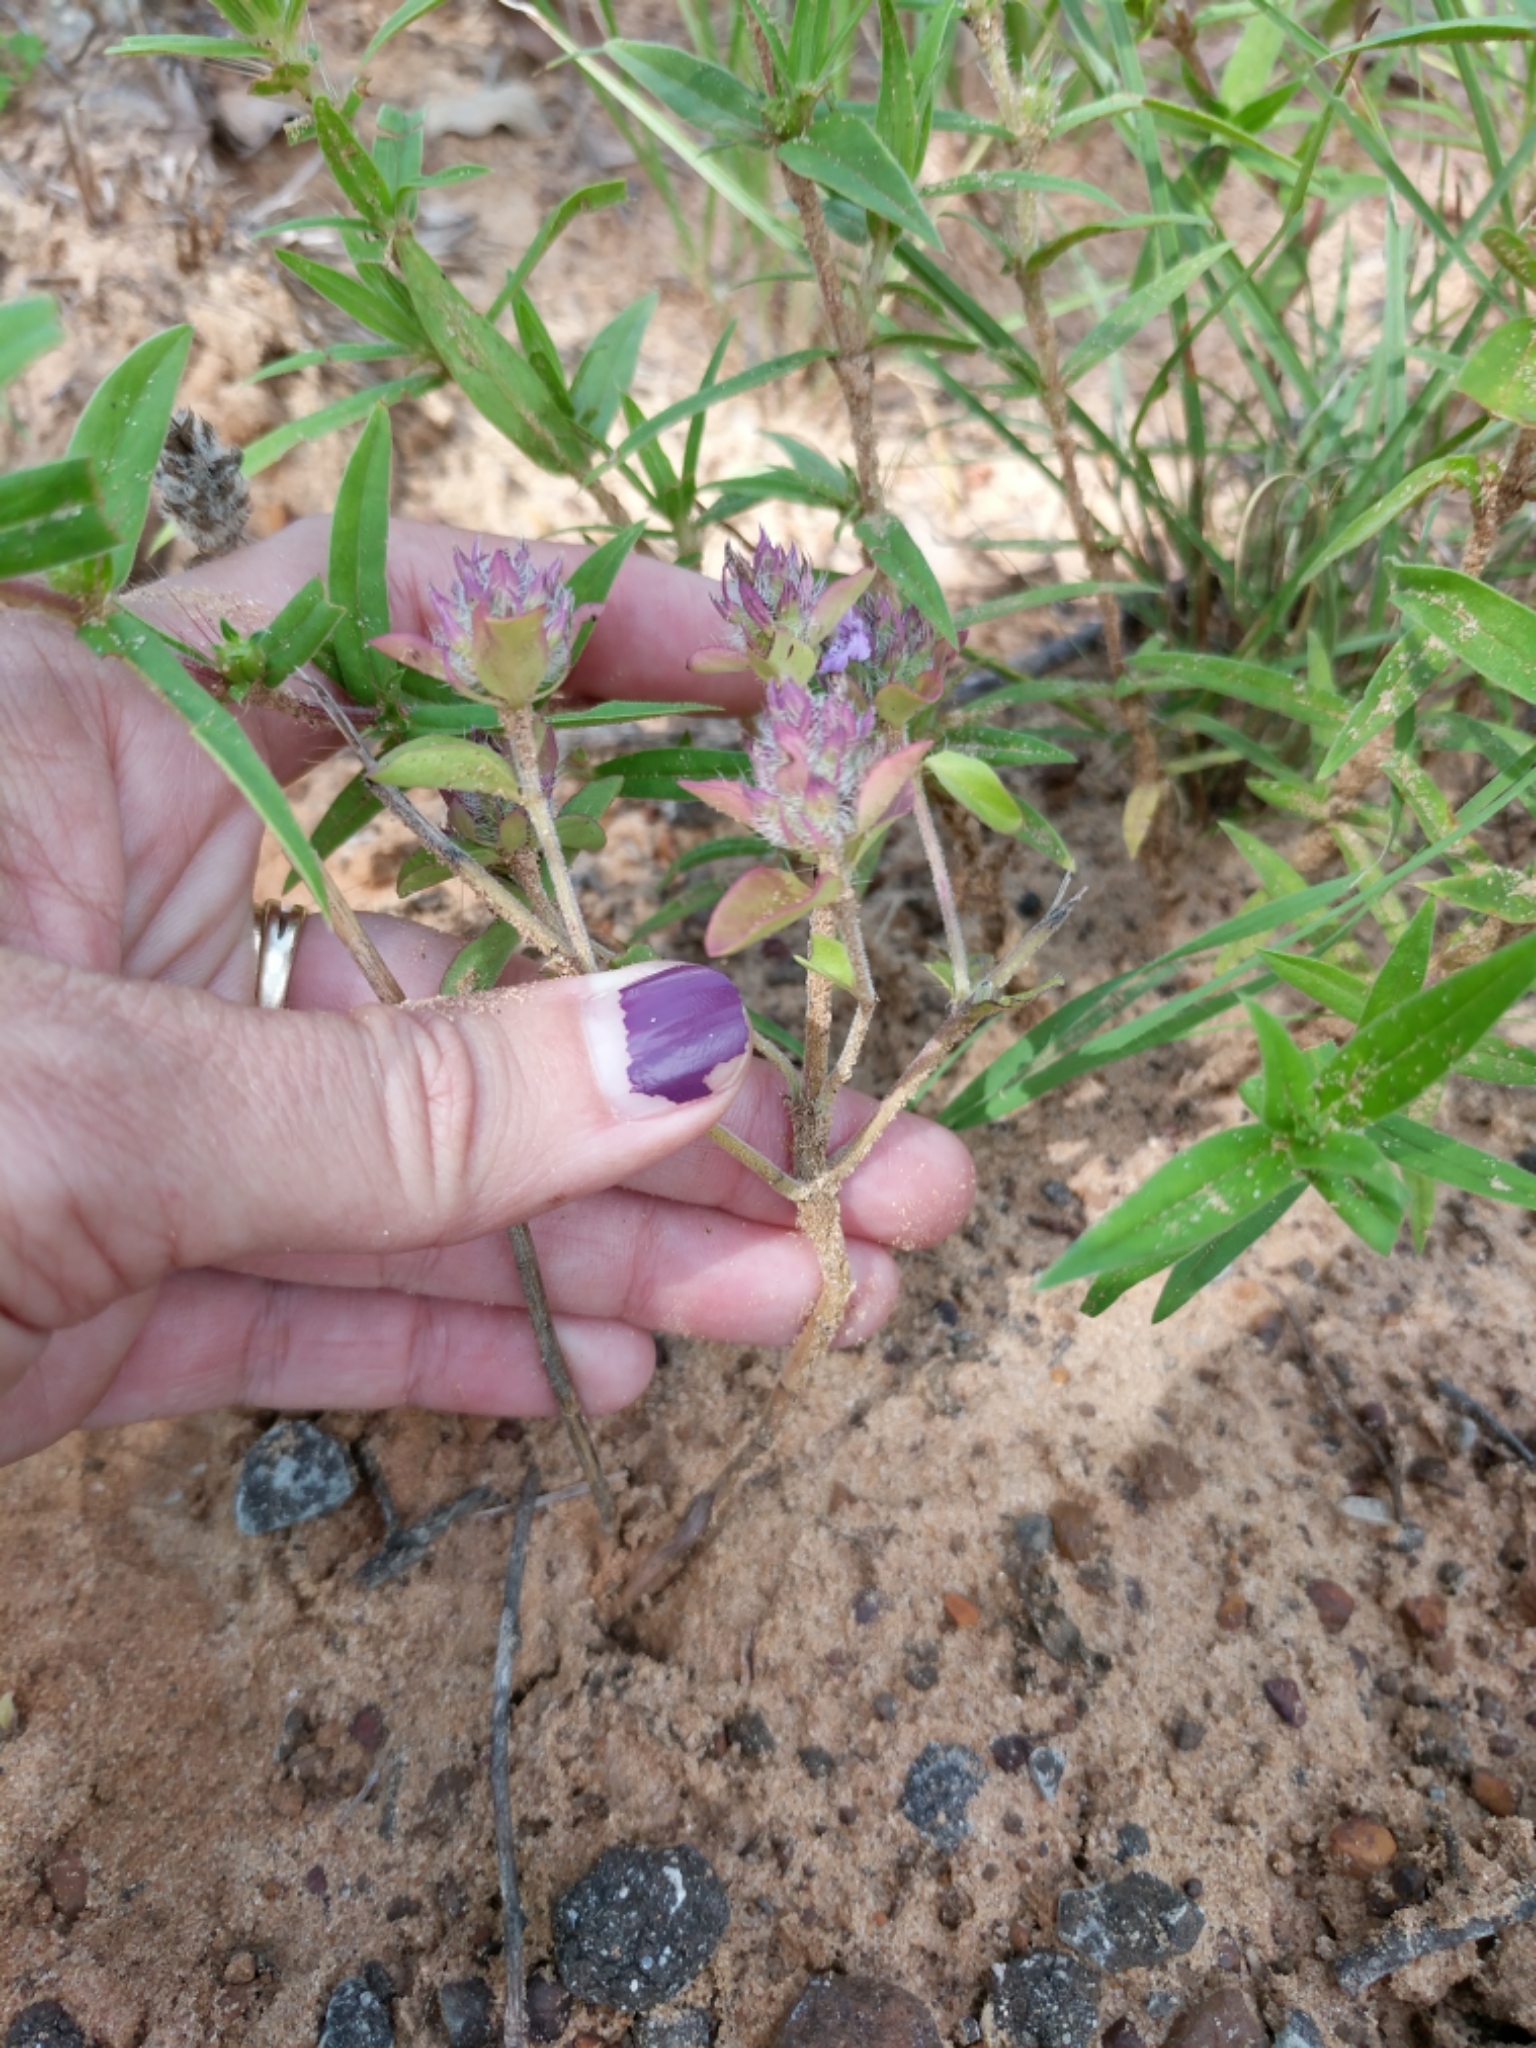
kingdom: Plantae
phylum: Tracheophyta
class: Magnoliopsida
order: Lamiales
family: Lamiaceae
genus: Rhododon
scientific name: Rhododon ciliatus
